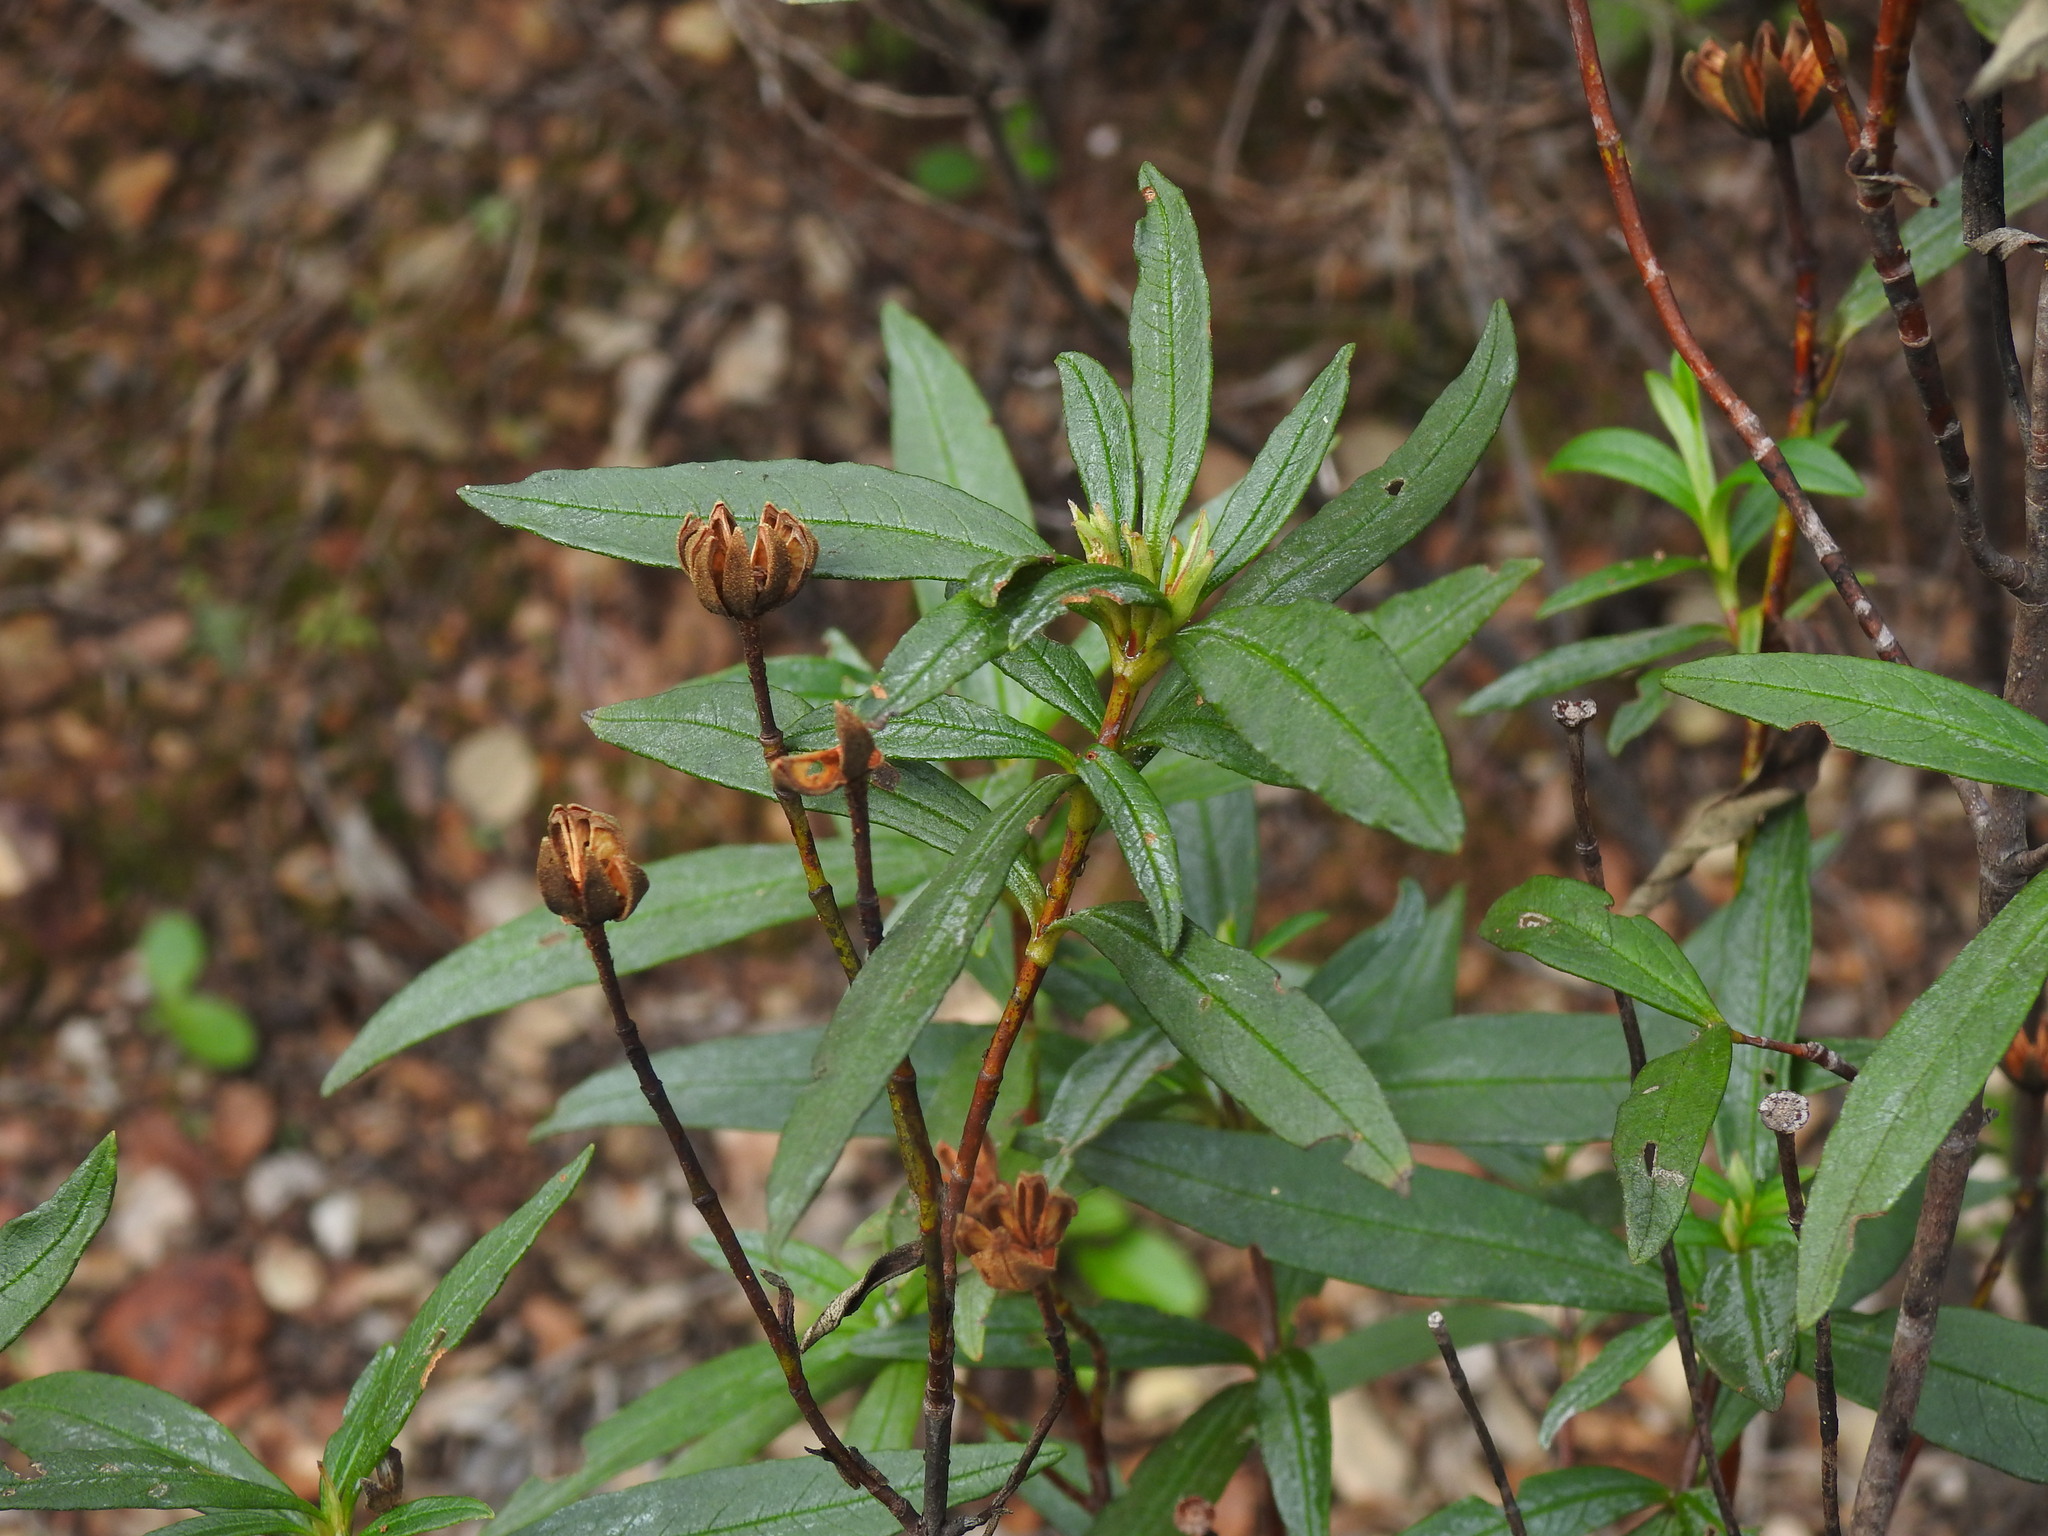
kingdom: Plantae
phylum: Tracheophyta
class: Magnoliopsida
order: Malvales
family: Cistaceae
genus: Cistus
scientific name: Cistus ladanifer
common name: Common gum cistus
